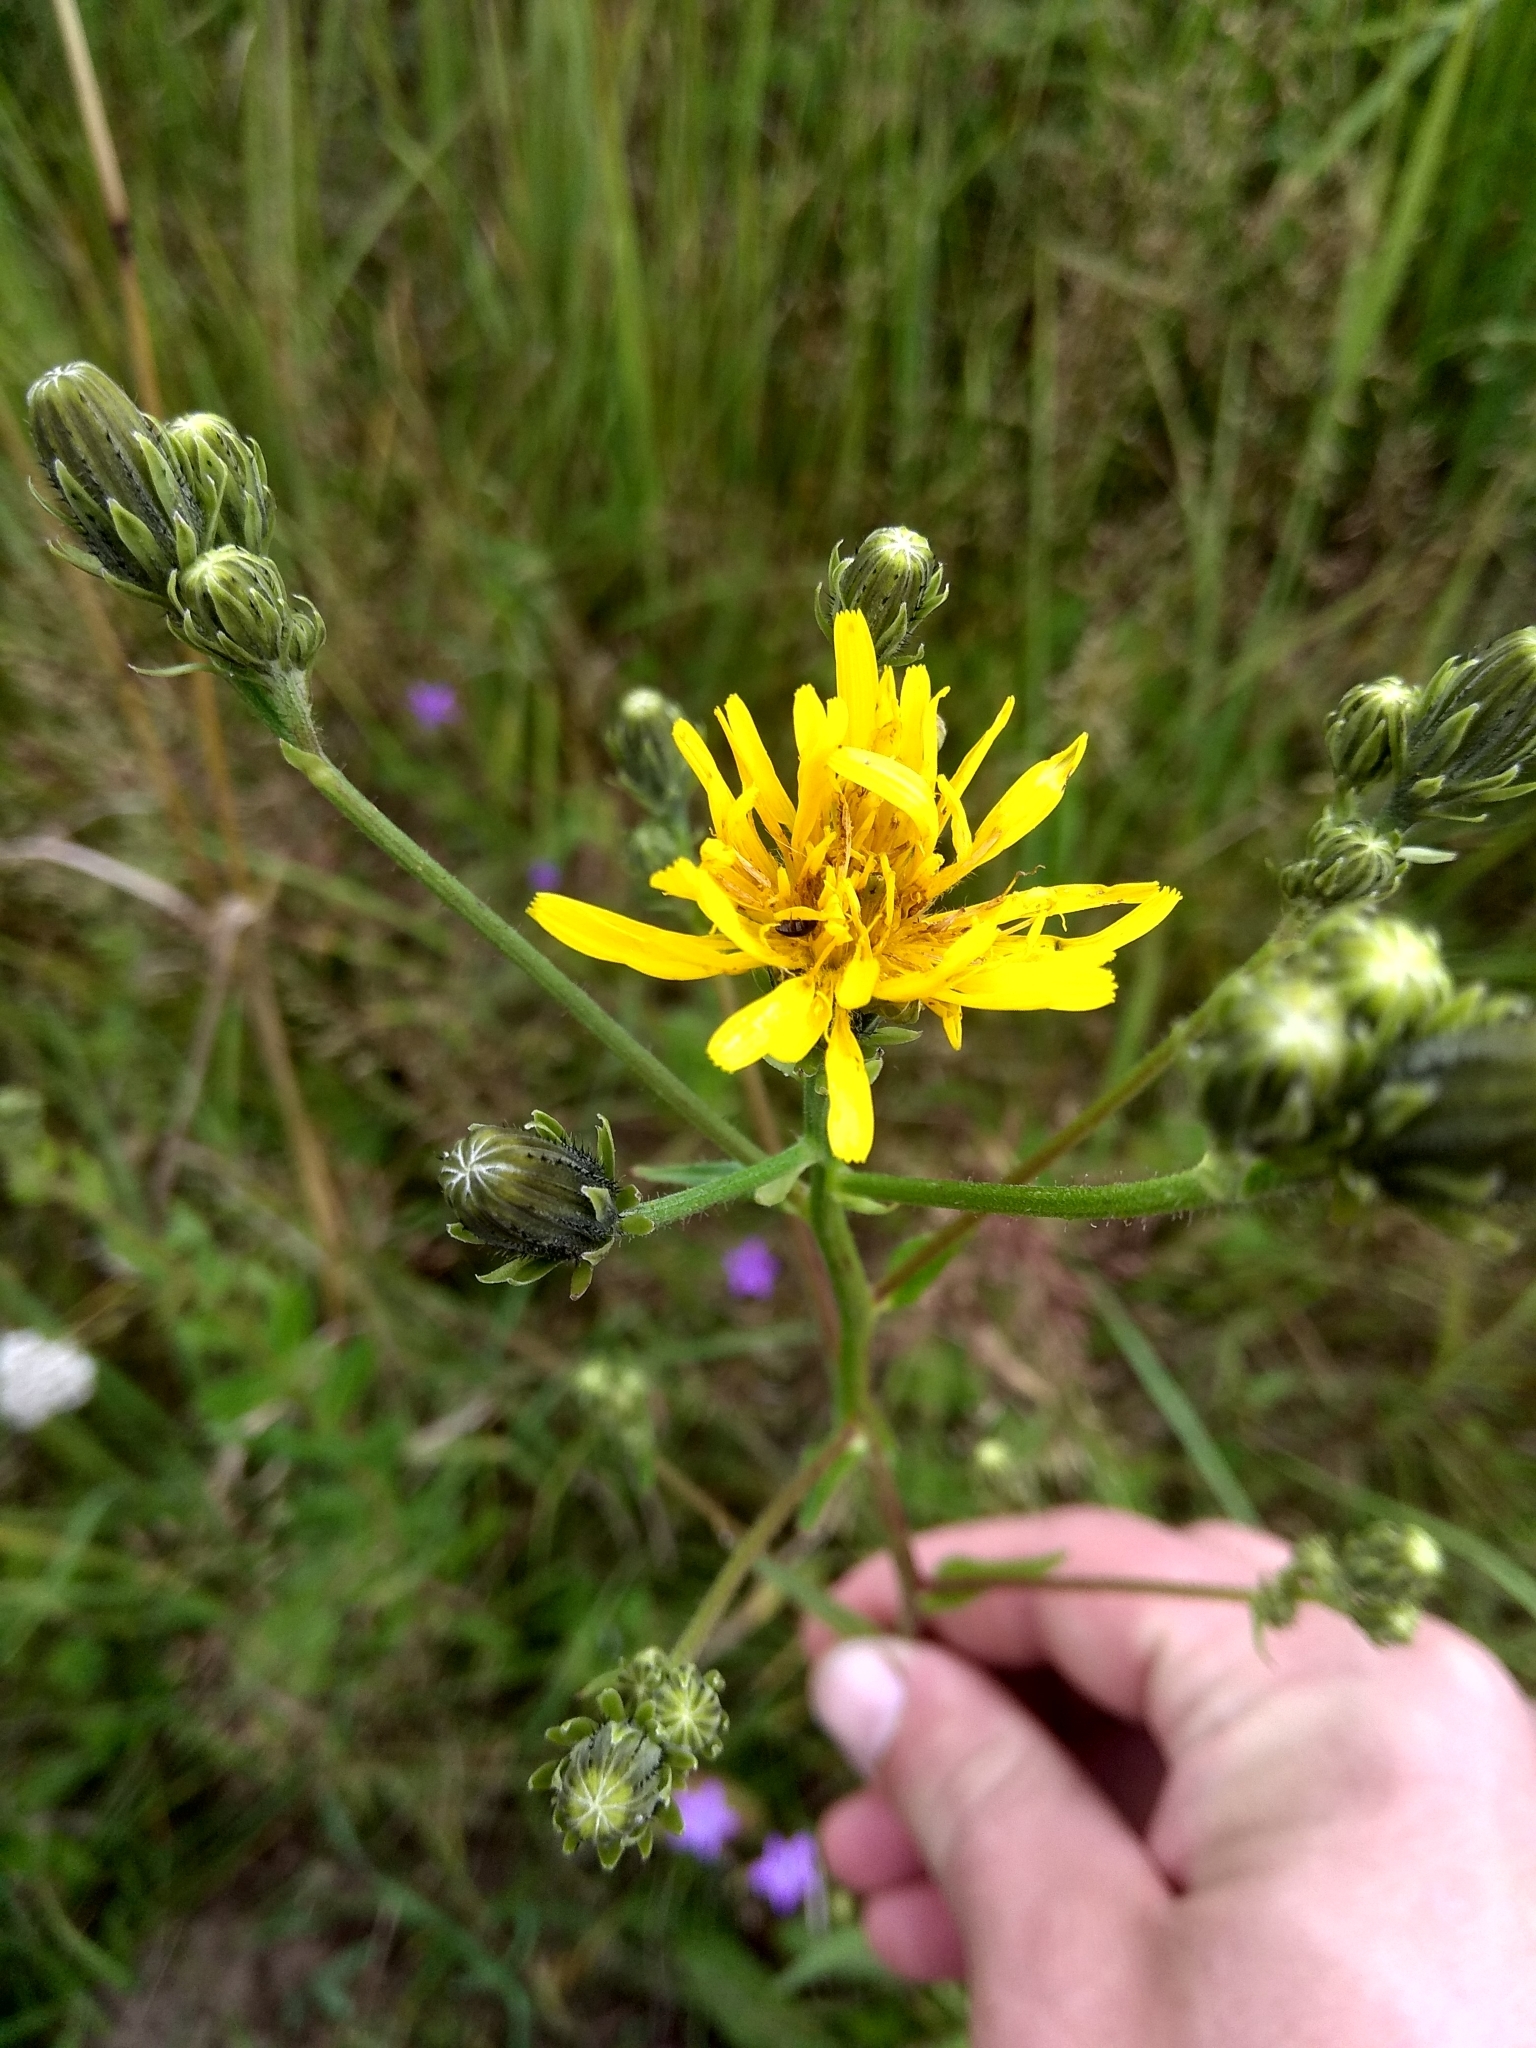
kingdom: Plantae
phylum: Tracheophyta
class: Magnoliopsida
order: Asterales
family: Asteraceae
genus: Picris
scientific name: Picris hieracioides
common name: Hawkweed oxtongue
